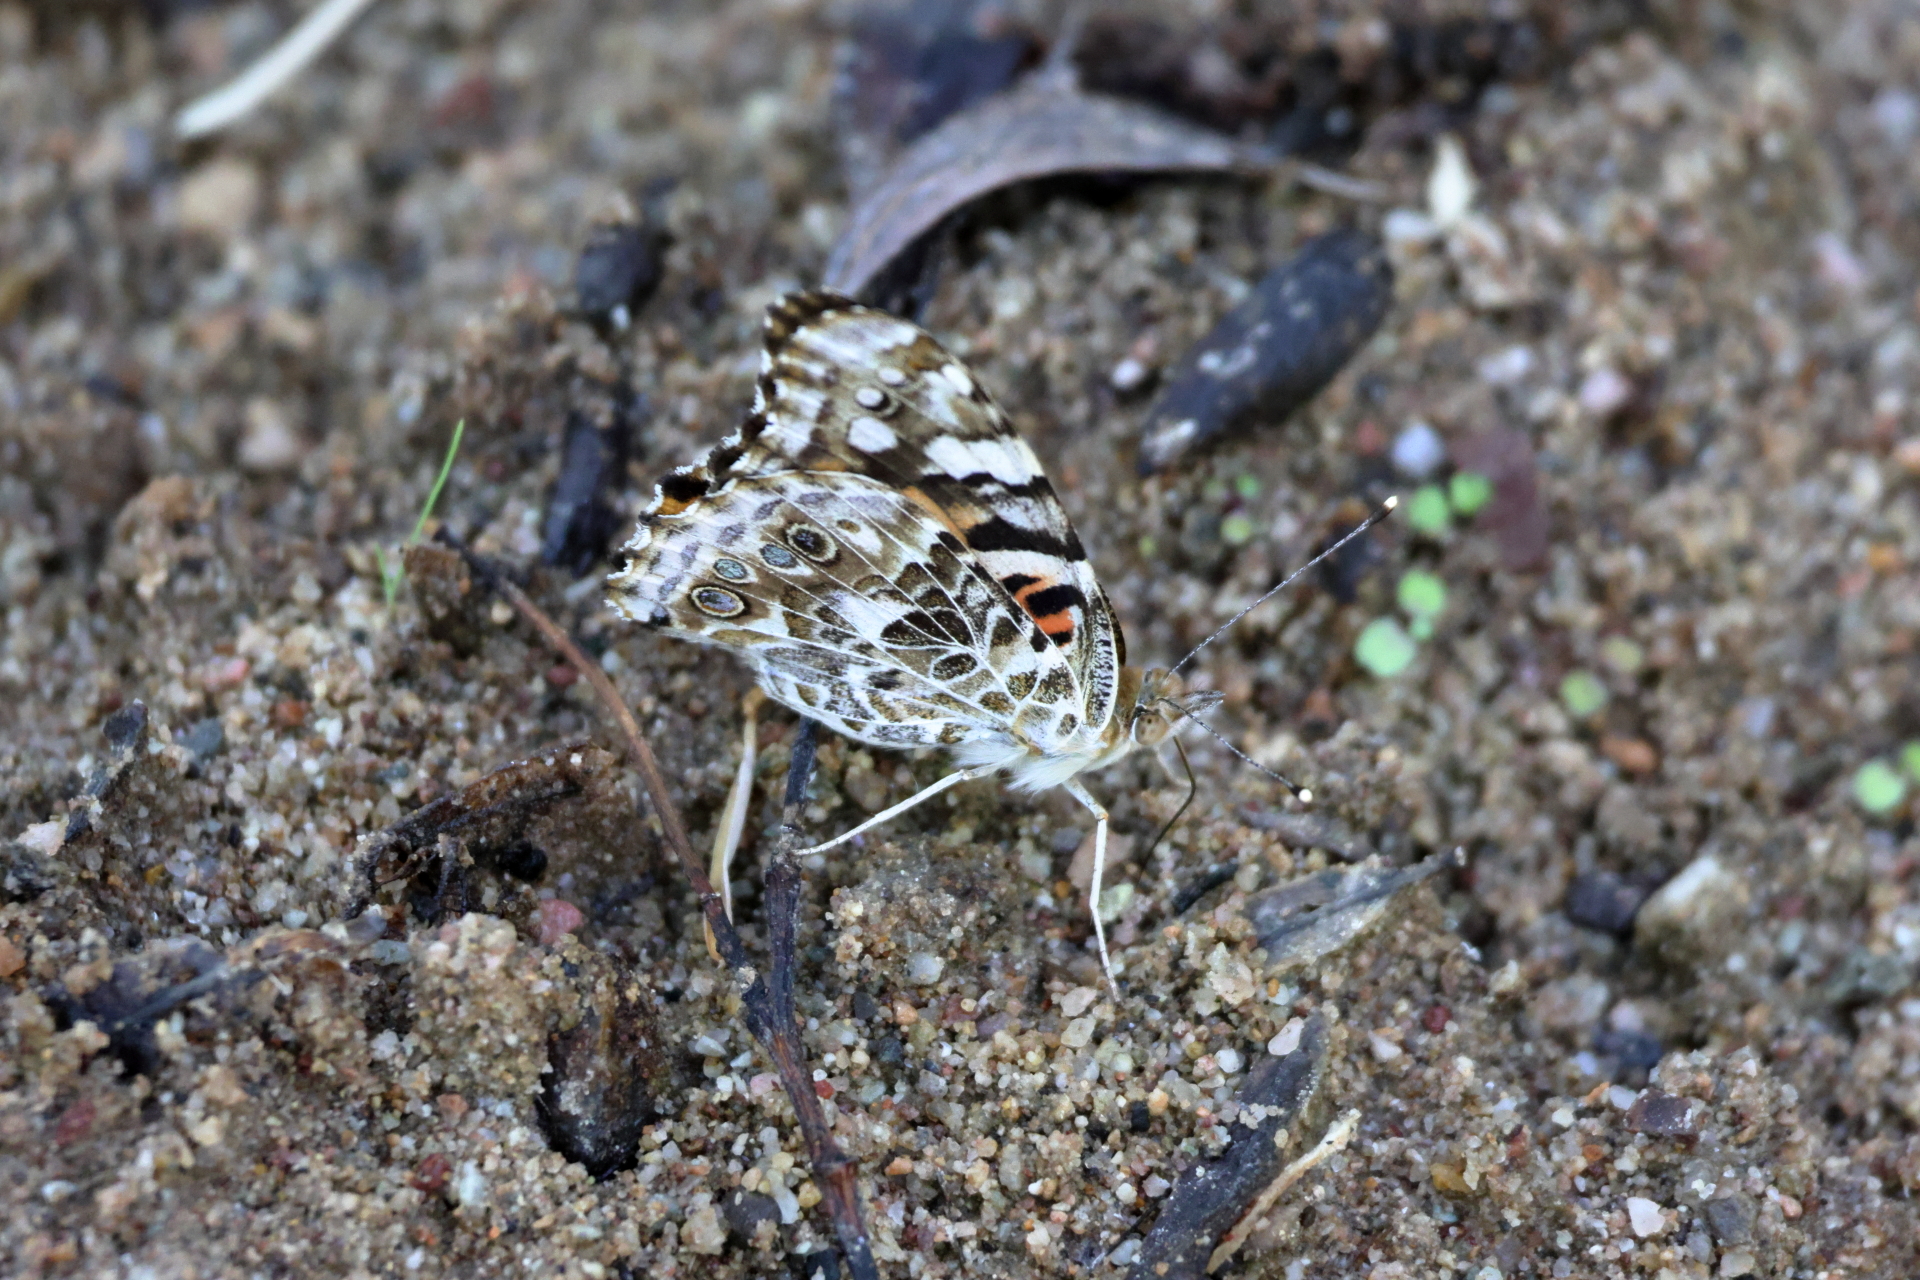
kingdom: Animalia
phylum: Arthropoda
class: Insecta
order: Lepidoptera
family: Nymphalidae
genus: Vanessa
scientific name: Vanessa cardui
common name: Painted lady
